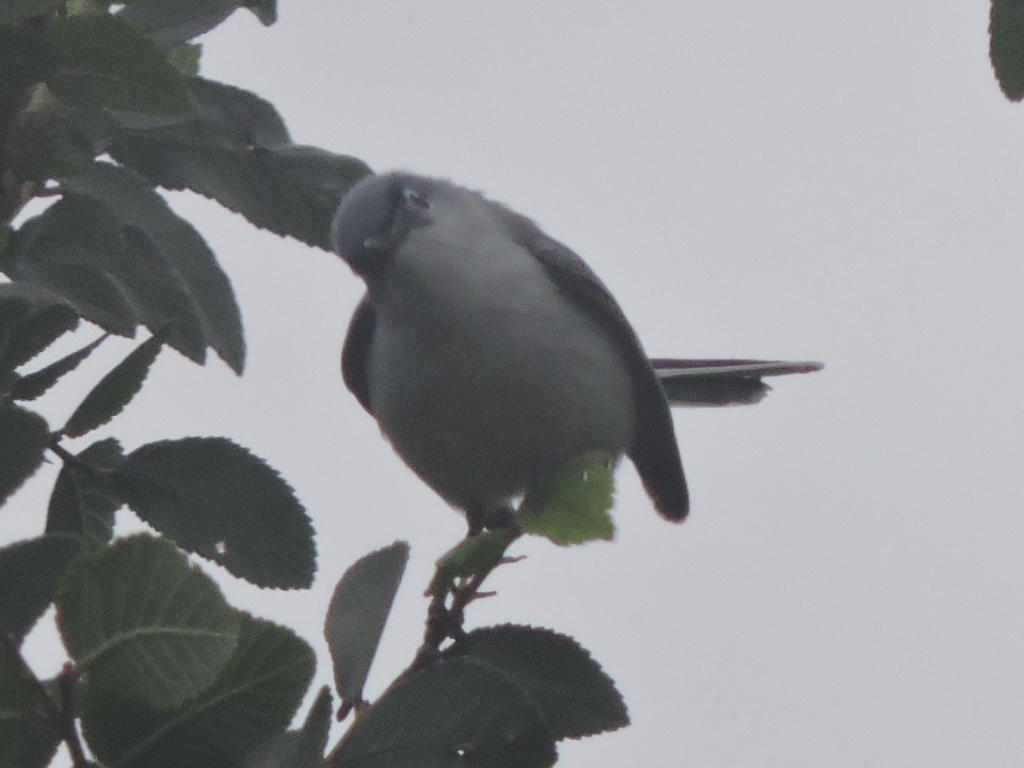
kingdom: Animalia
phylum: Chordata
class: Aves
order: Passeriformes
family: Polioptilidae
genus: Polioptila
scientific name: Polioptila caerulea
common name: Blue-gray gnatcatcher
